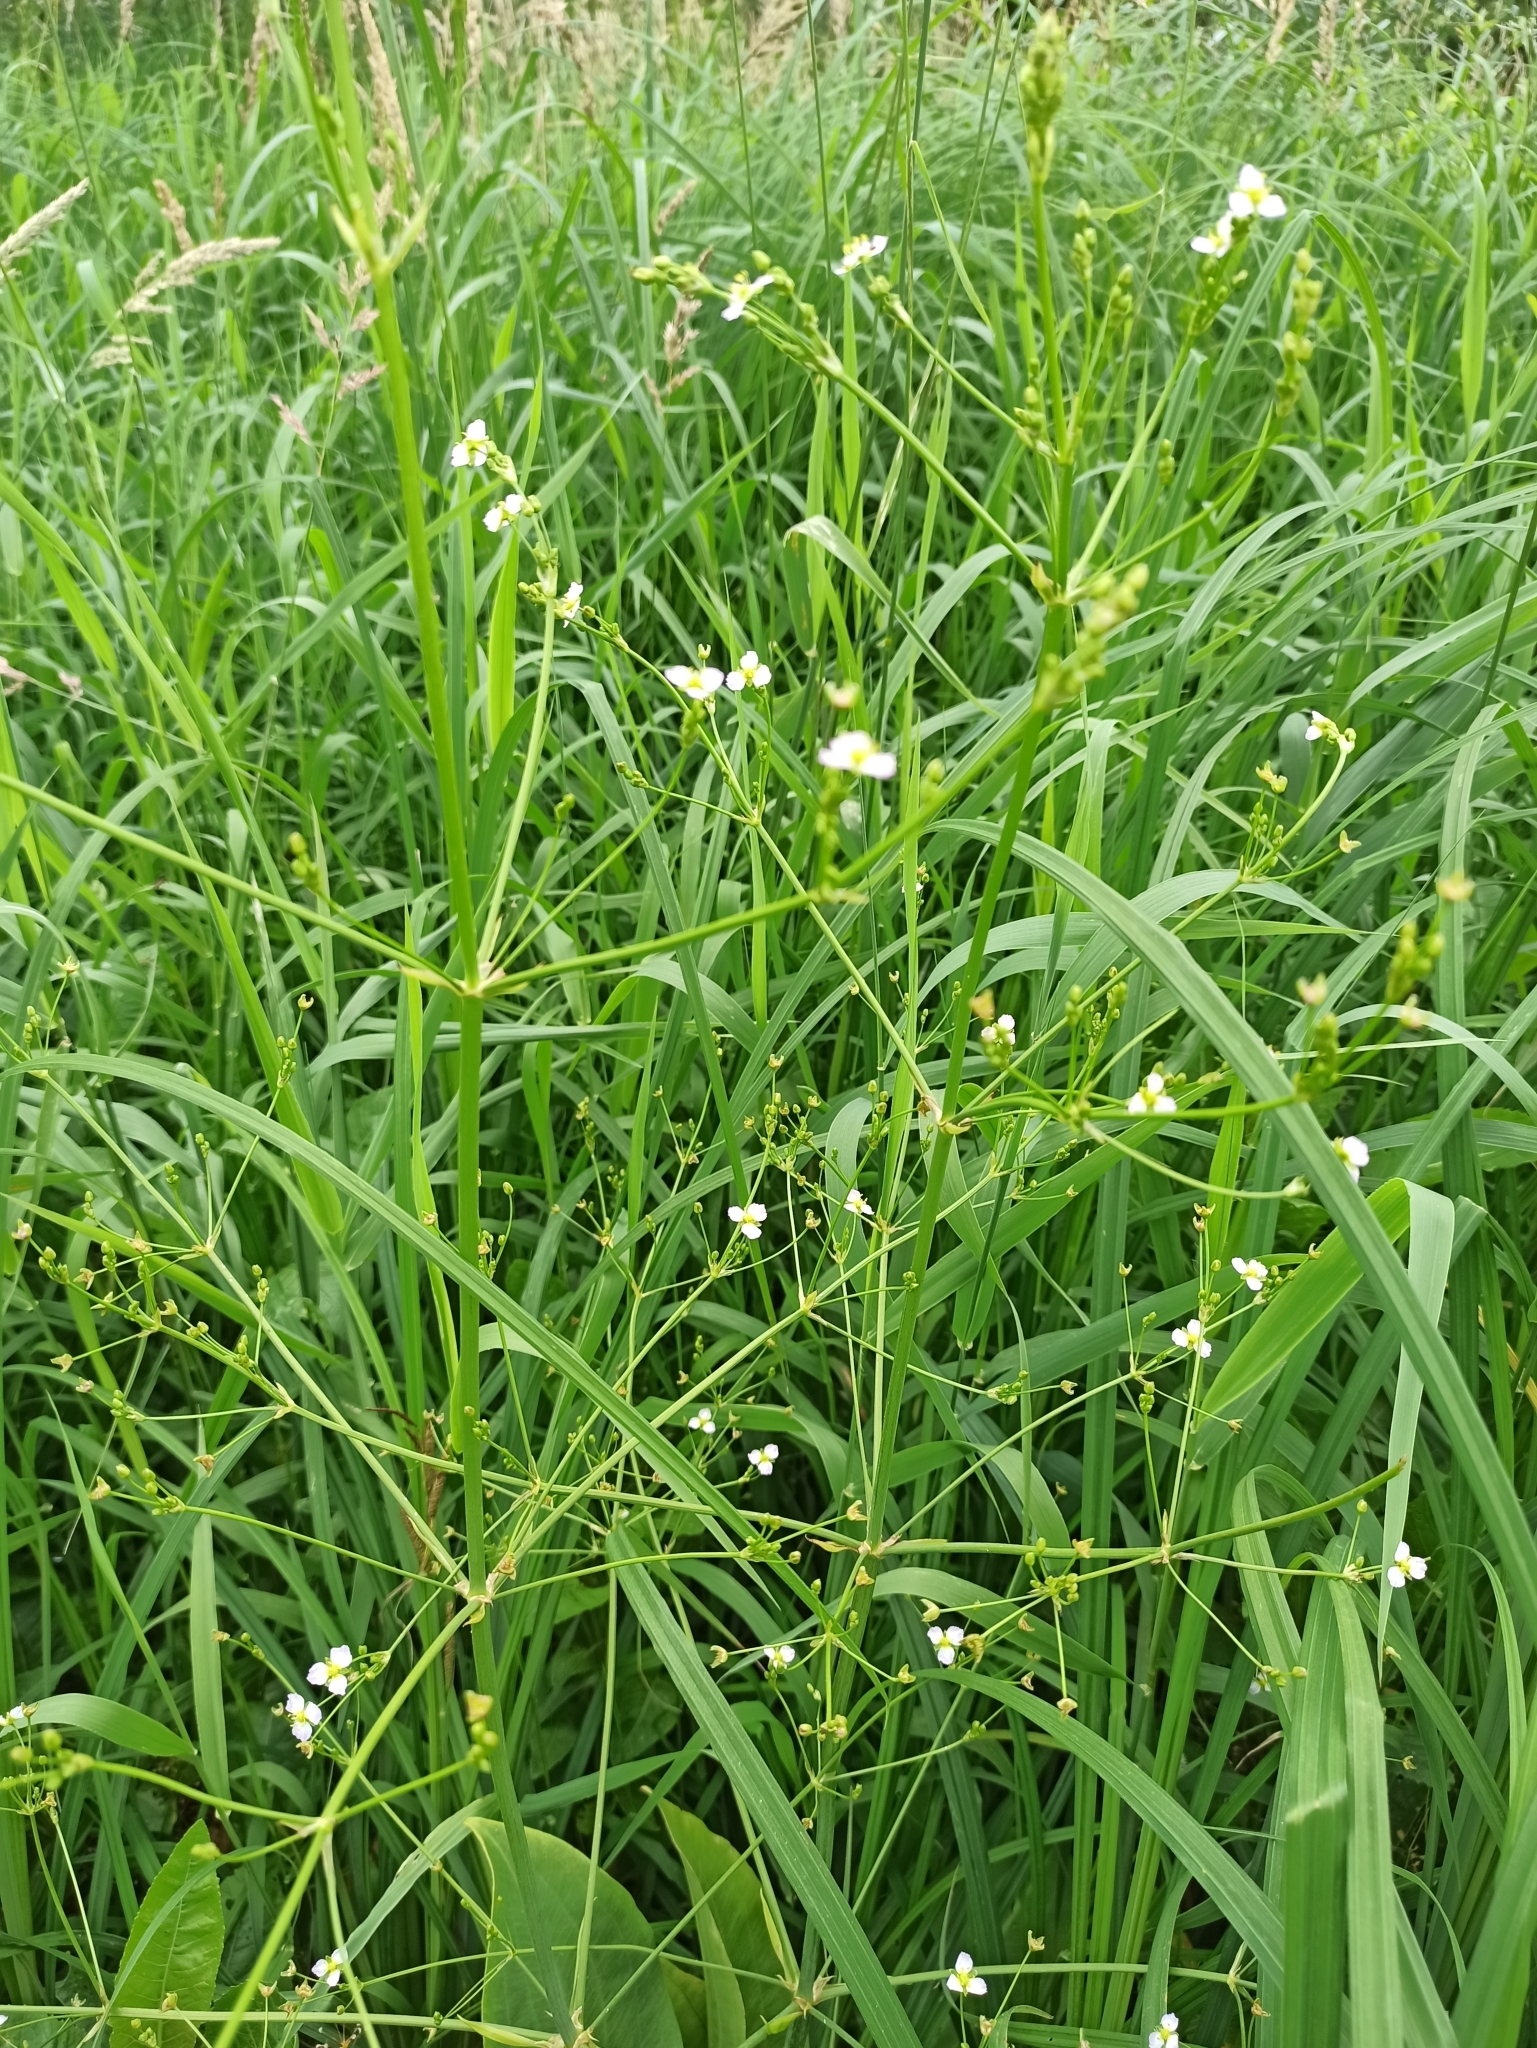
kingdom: Plantae
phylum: Tracheophyta
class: Liliopsida
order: Alismatales
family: Alismataceae
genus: Alisma
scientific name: Alisma plantago-aquatica
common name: Water-plantain
